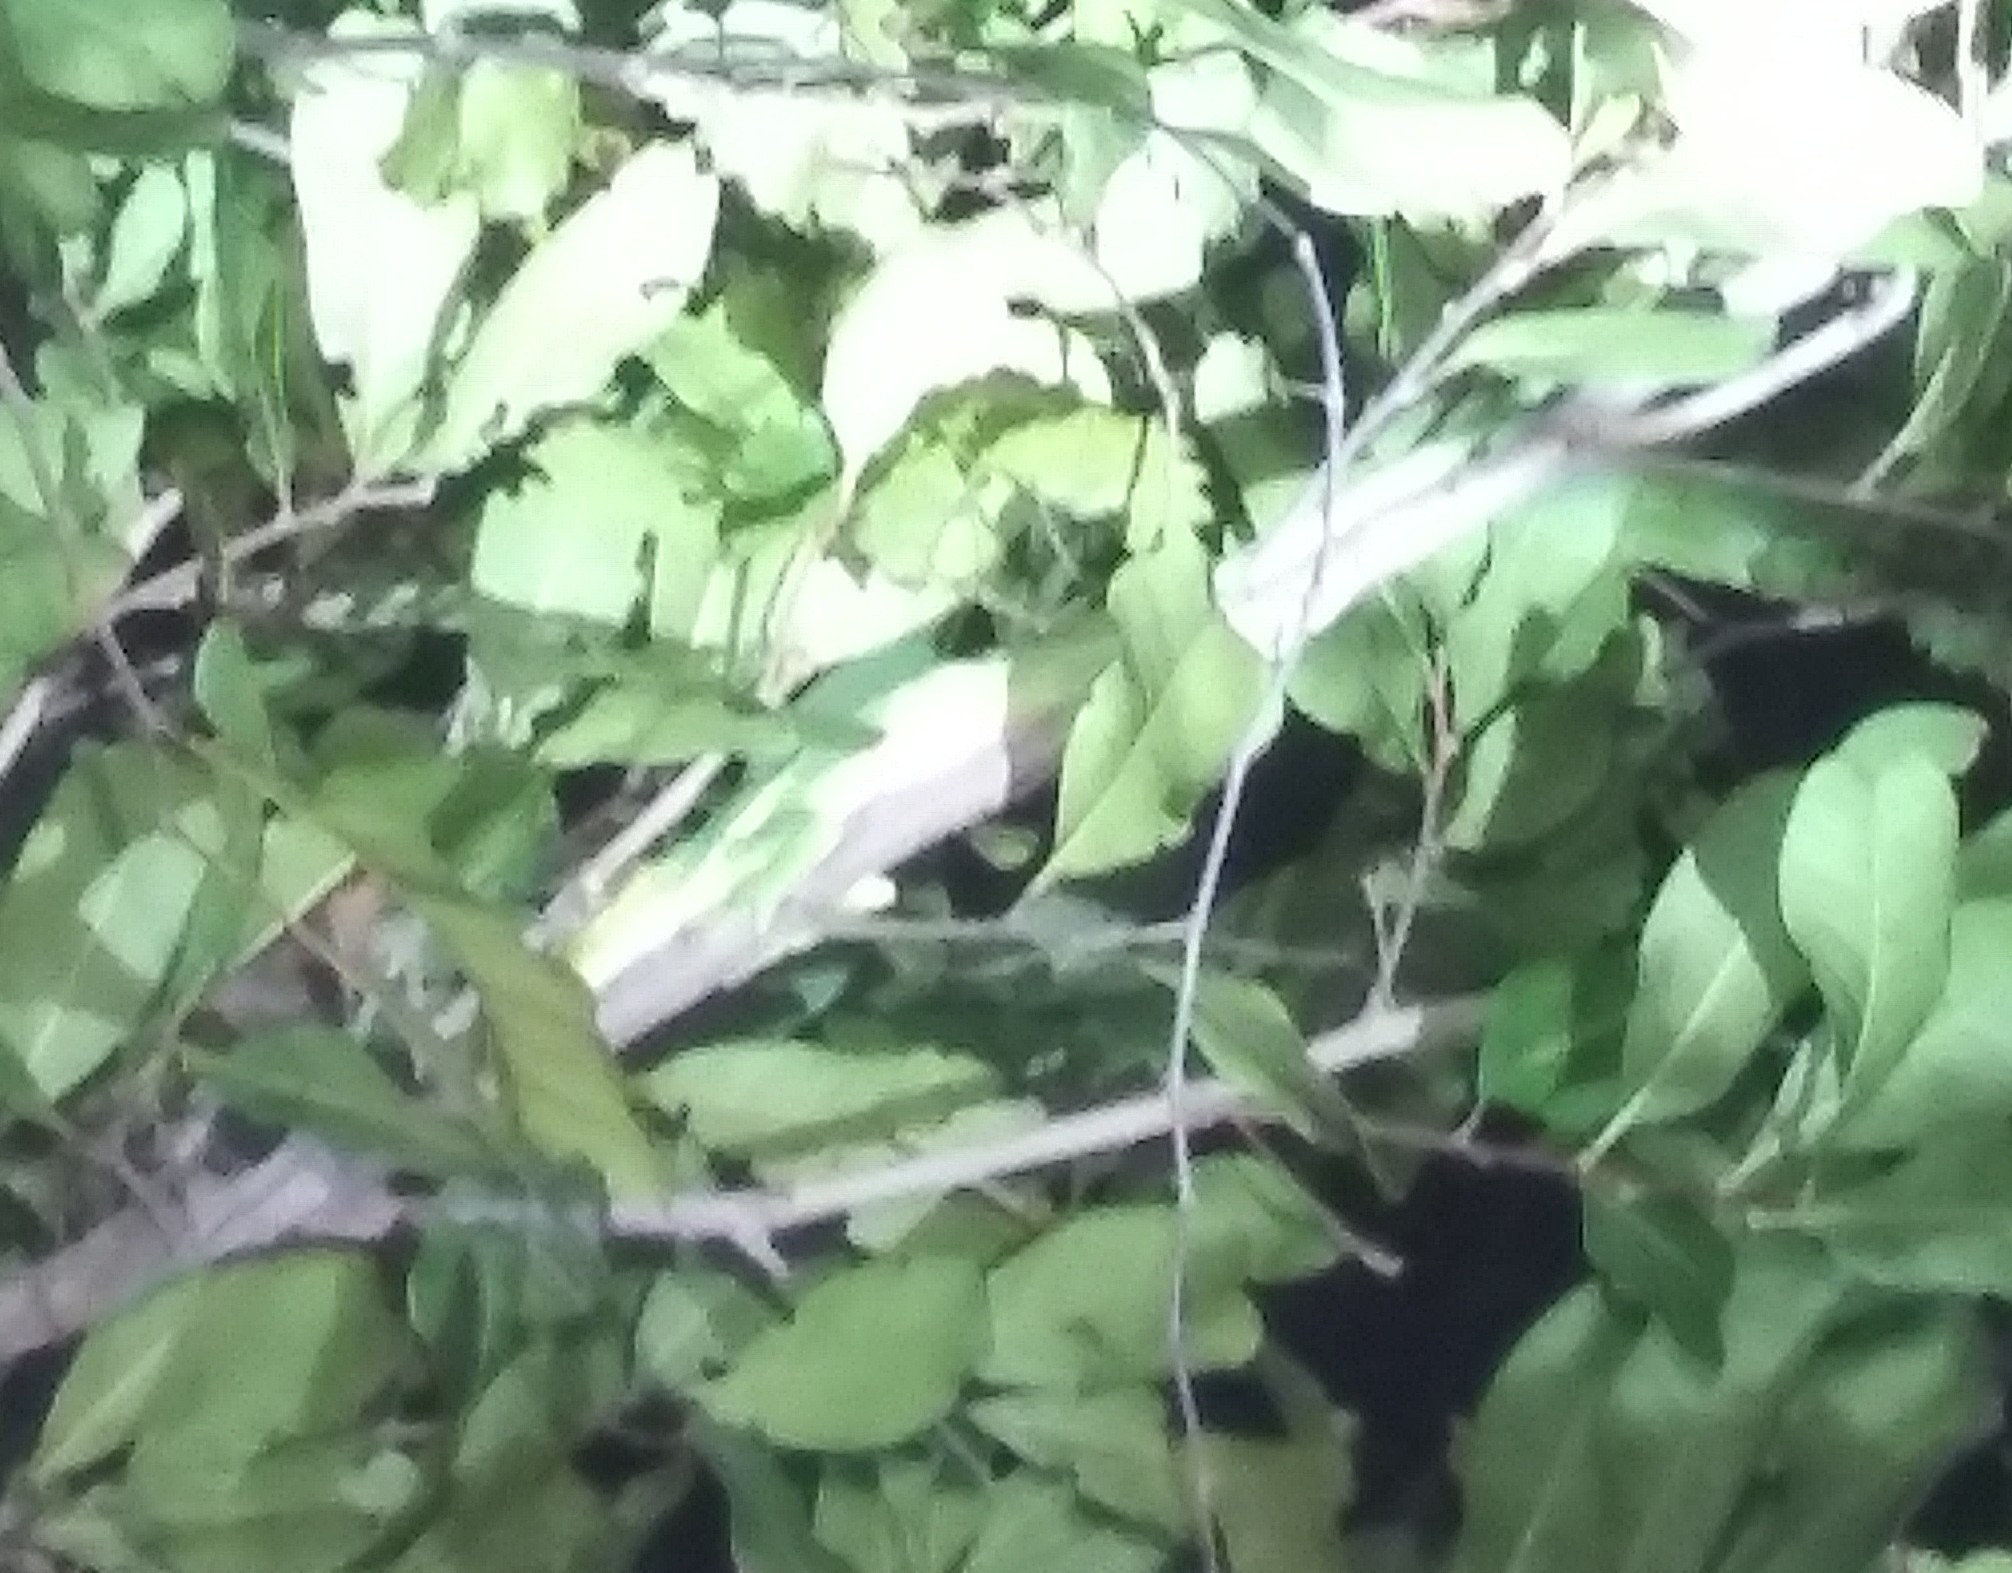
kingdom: Animalia
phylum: Chordata
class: Squamata
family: Dactyloidae
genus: Anolis
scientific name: Anolis equestris
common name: Knight anole
